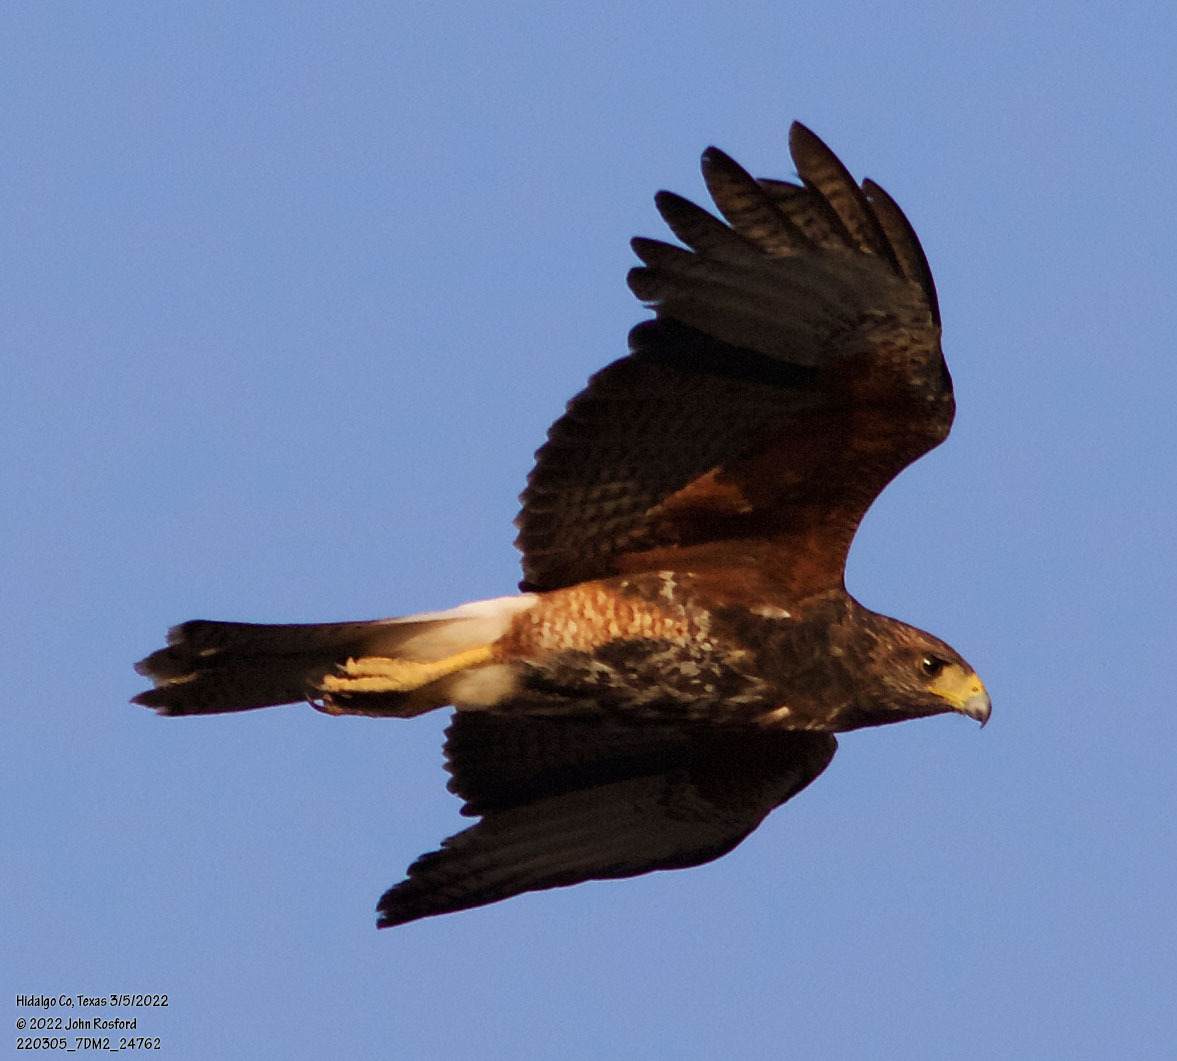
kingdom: Animalia
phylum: Chordata
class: Aves
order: Accipitriformes
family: Accipitridae
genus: Parabuteo
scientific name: Parabuteo unicinctus
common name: Harris's hawk
